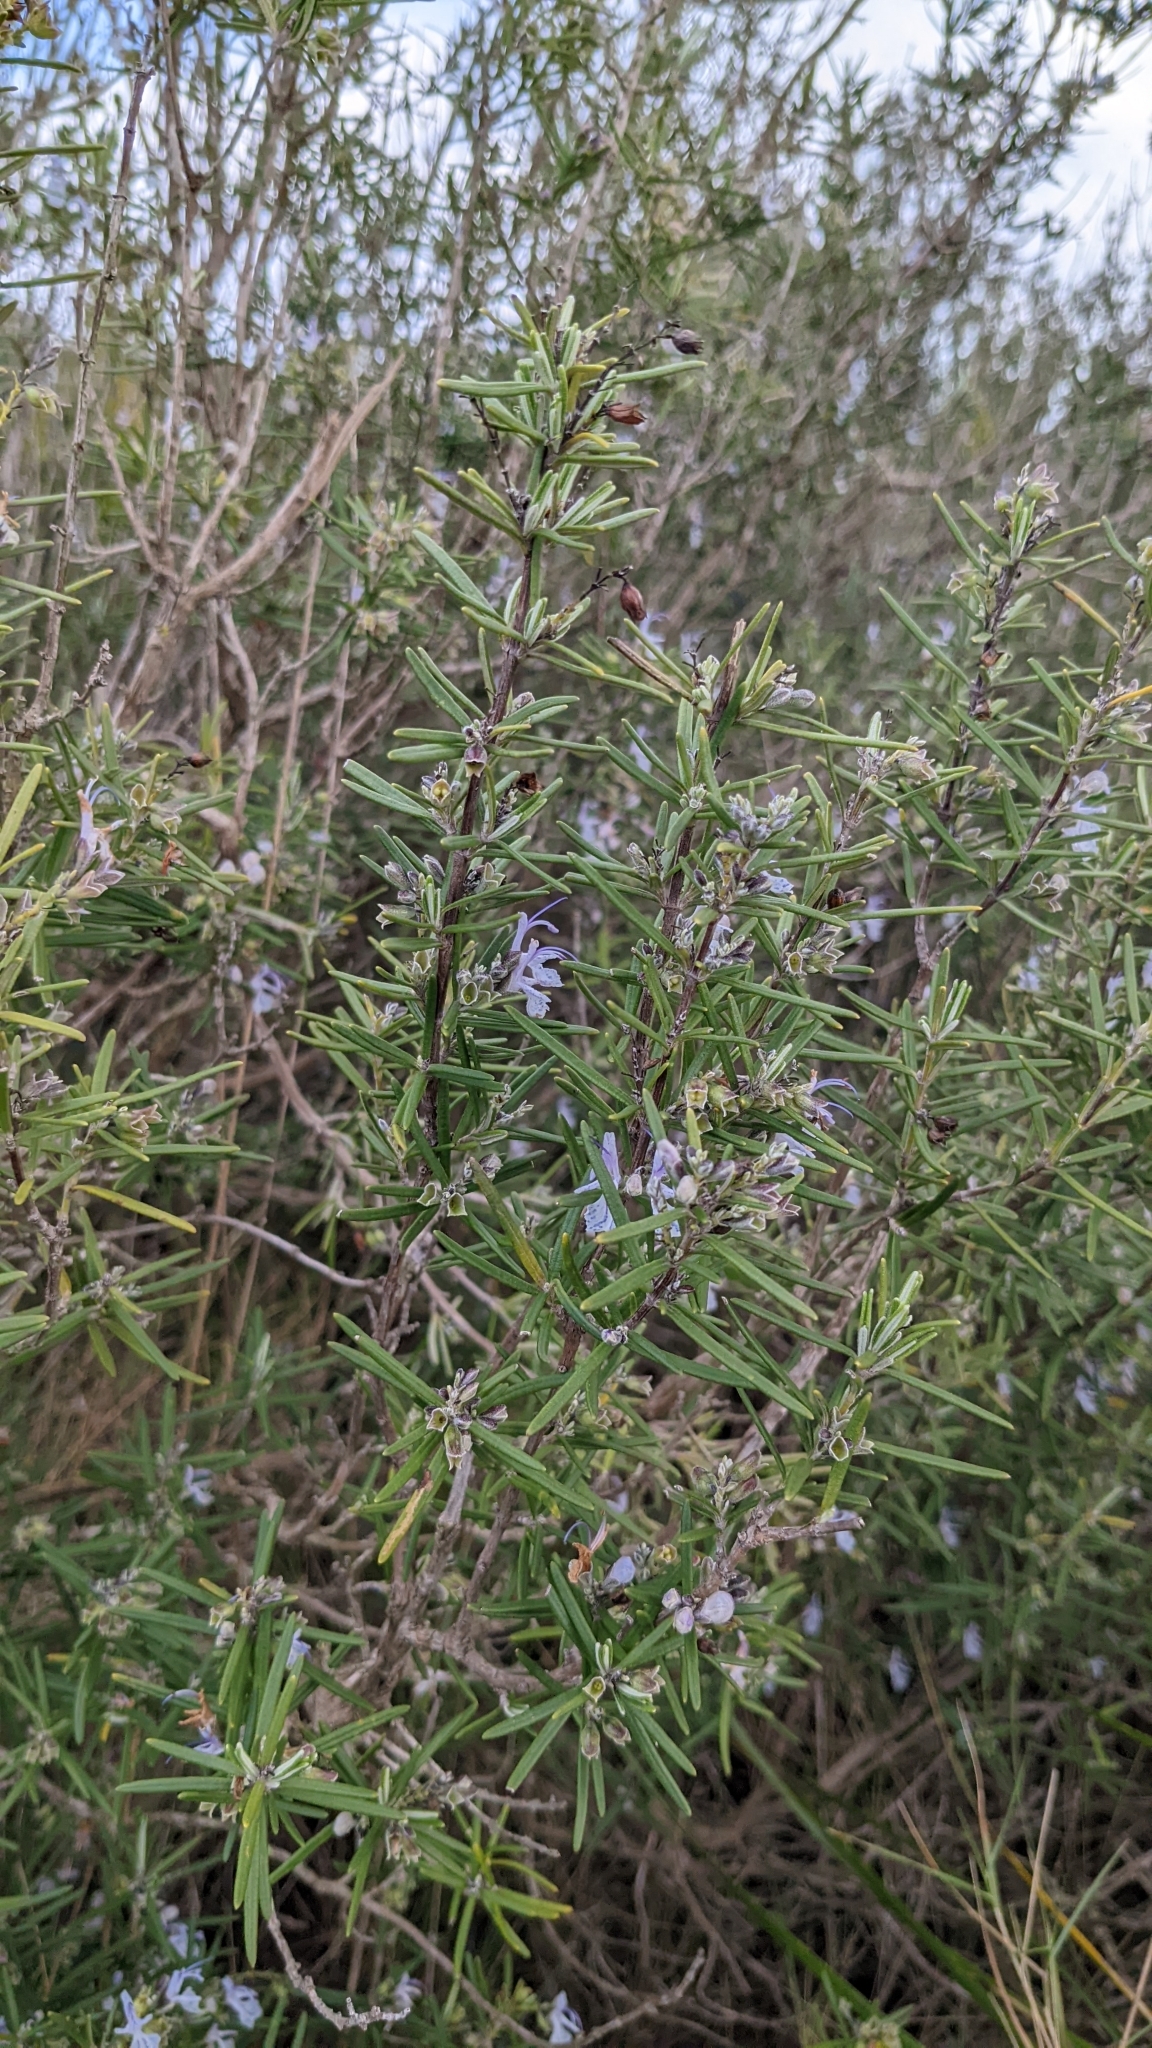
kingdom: Plantae
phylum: Tracheophyta
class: Magnoliopsida
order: Lamiales
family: Lamiaceae
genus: Salvia
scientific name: Salvia rosmarinus
